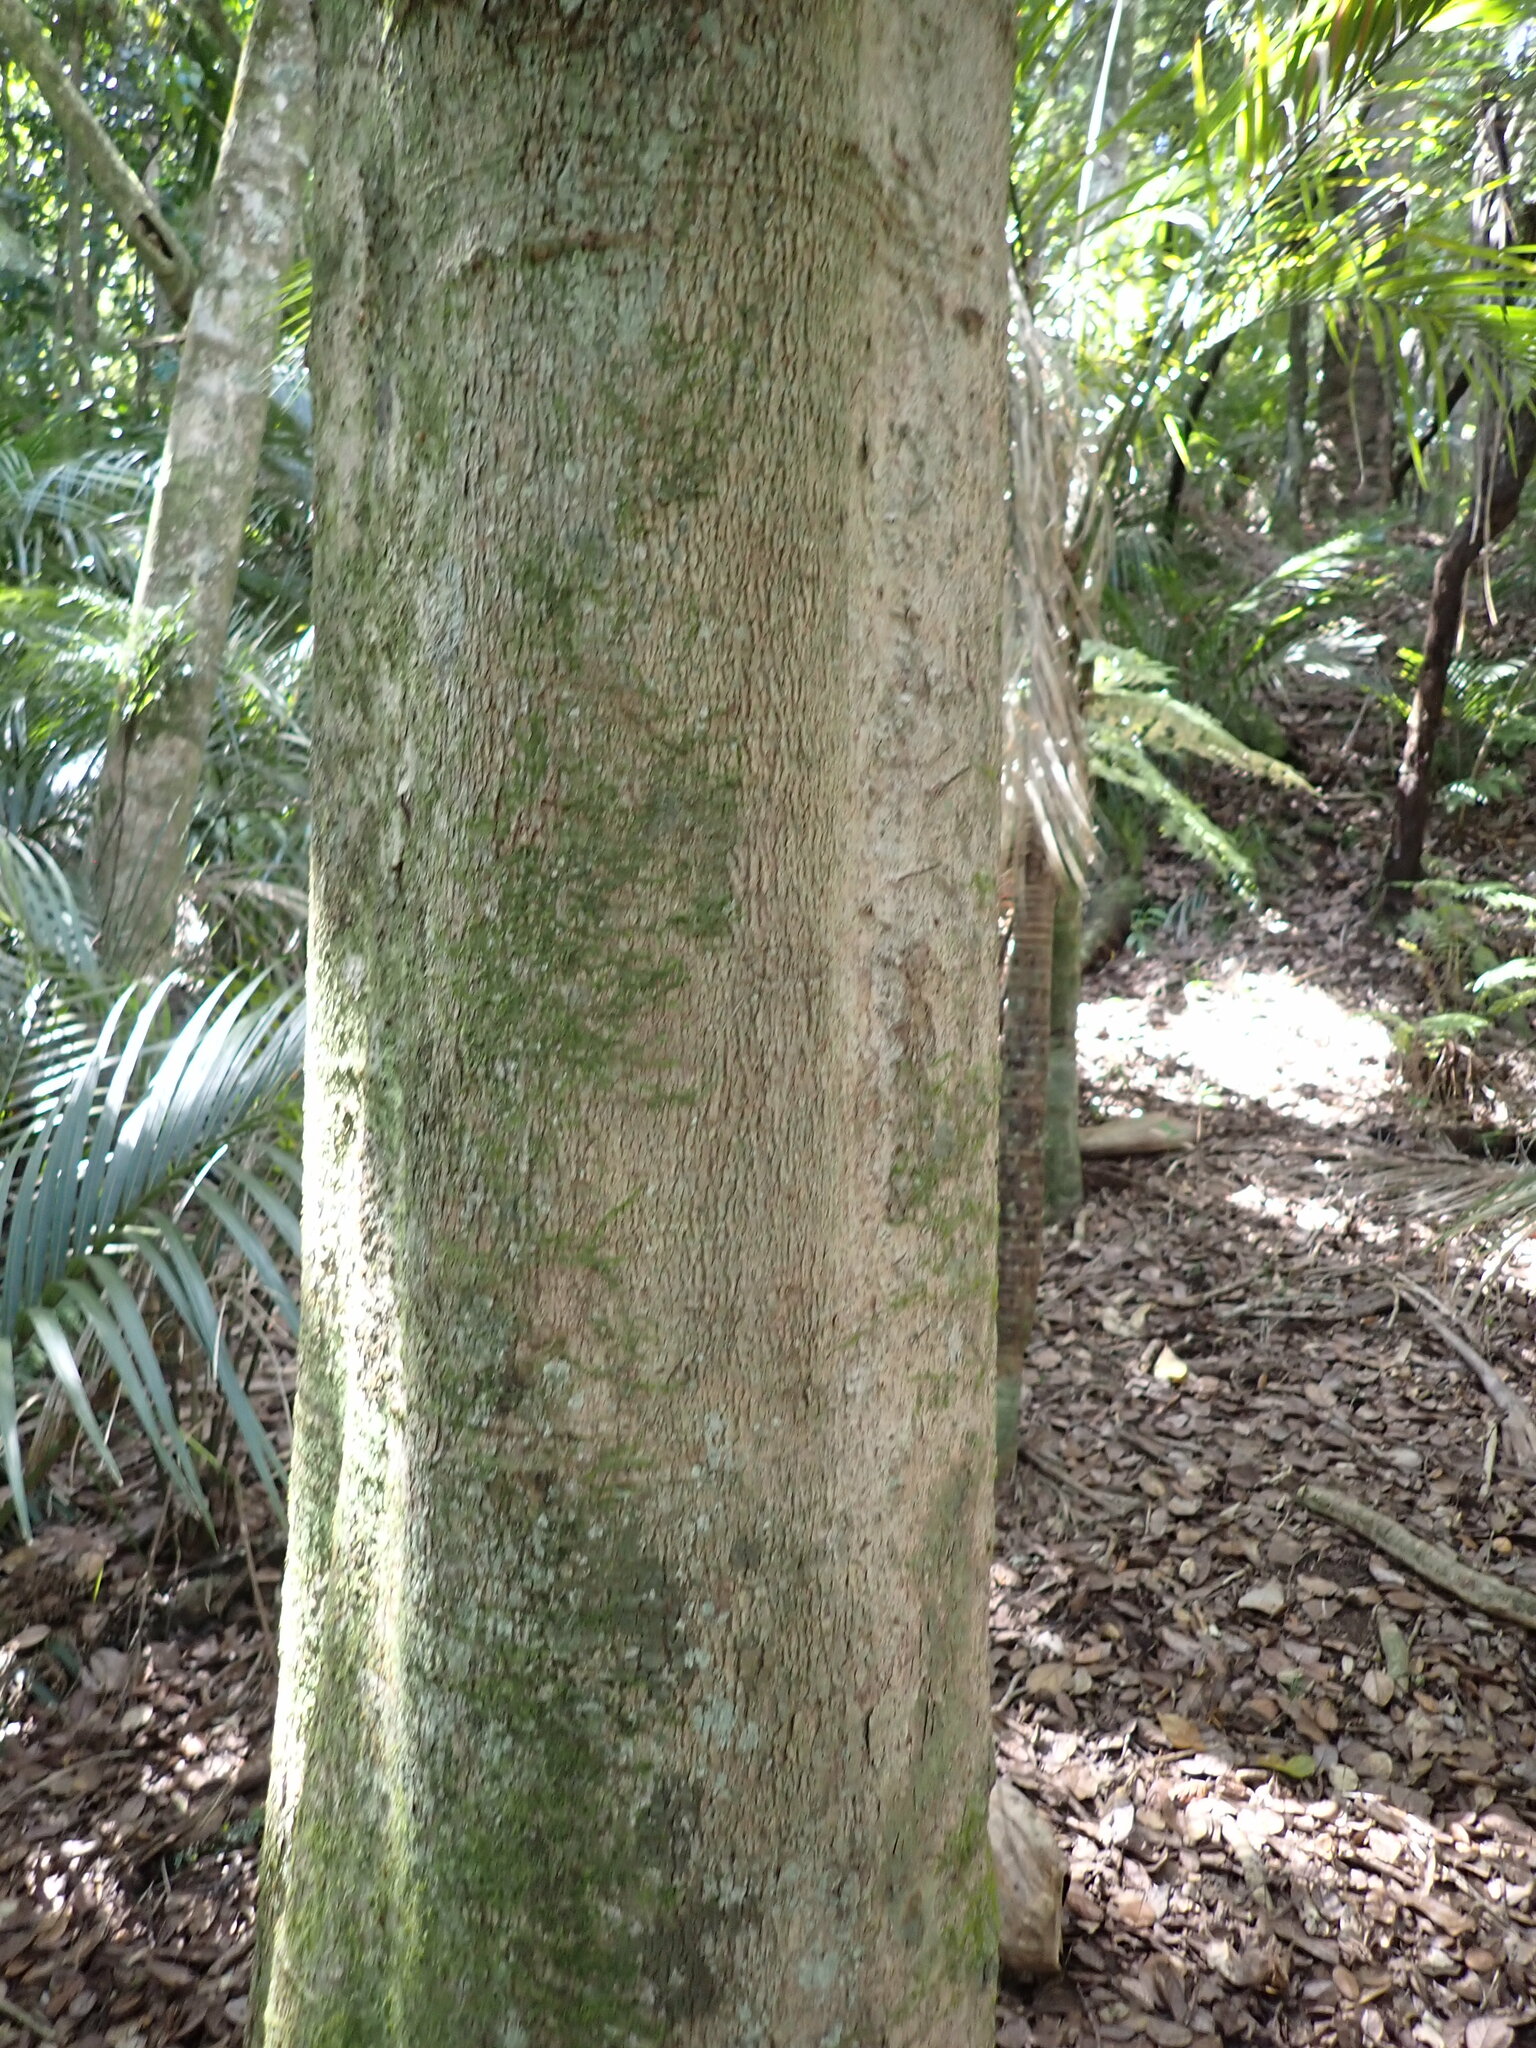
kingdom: Plantae
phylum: Tracheophyta
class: Magnoliopsida
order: Laurales
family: Lauraceae
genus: Beilschmiedia
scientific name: Beilschmiedia tarairi
